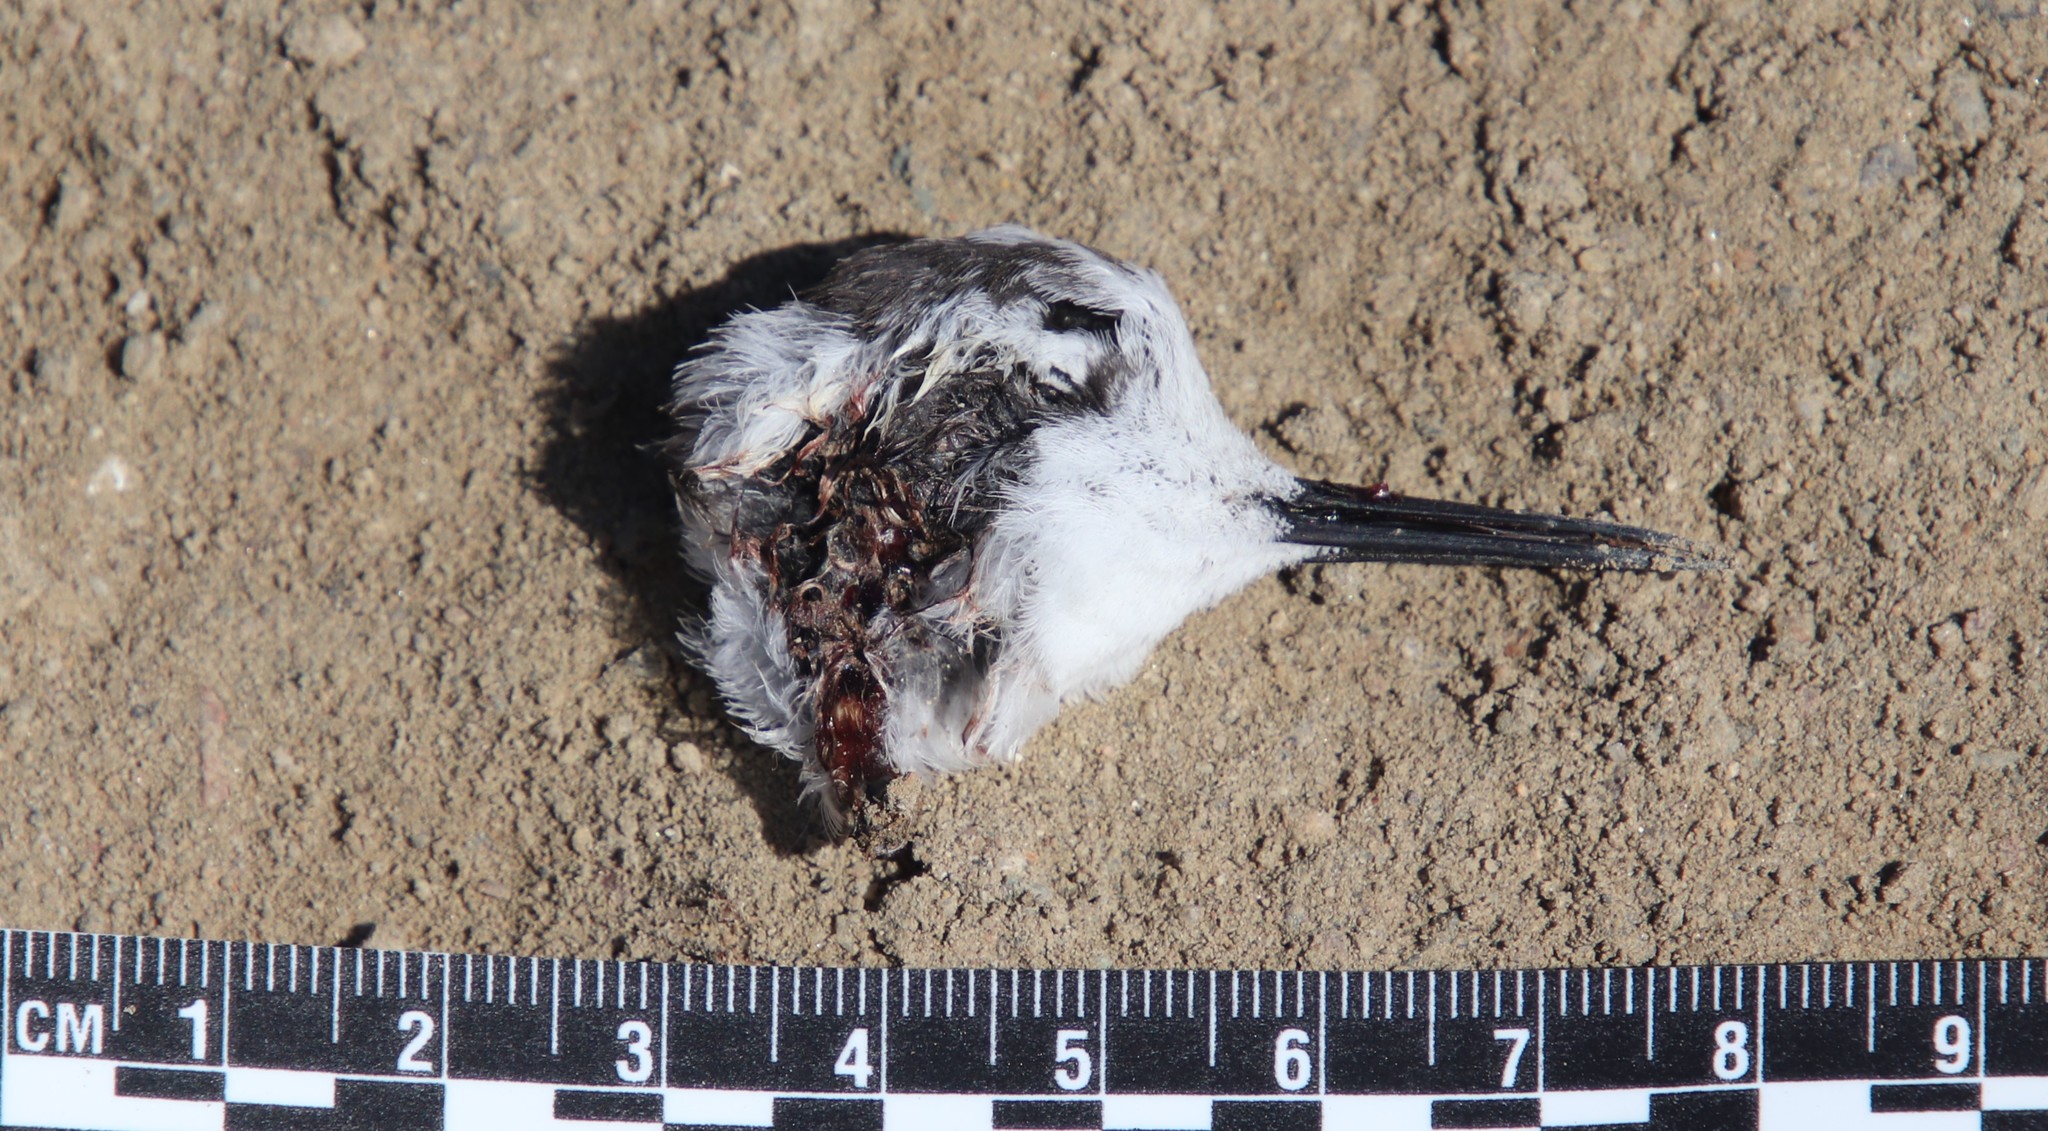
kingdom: Animalia
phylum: Chordata
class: Aves
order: Charadriiformes
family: Scolopacidae
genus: Phalaropus
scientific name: Phalaropus lobatus
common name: Red-necked phalarope
